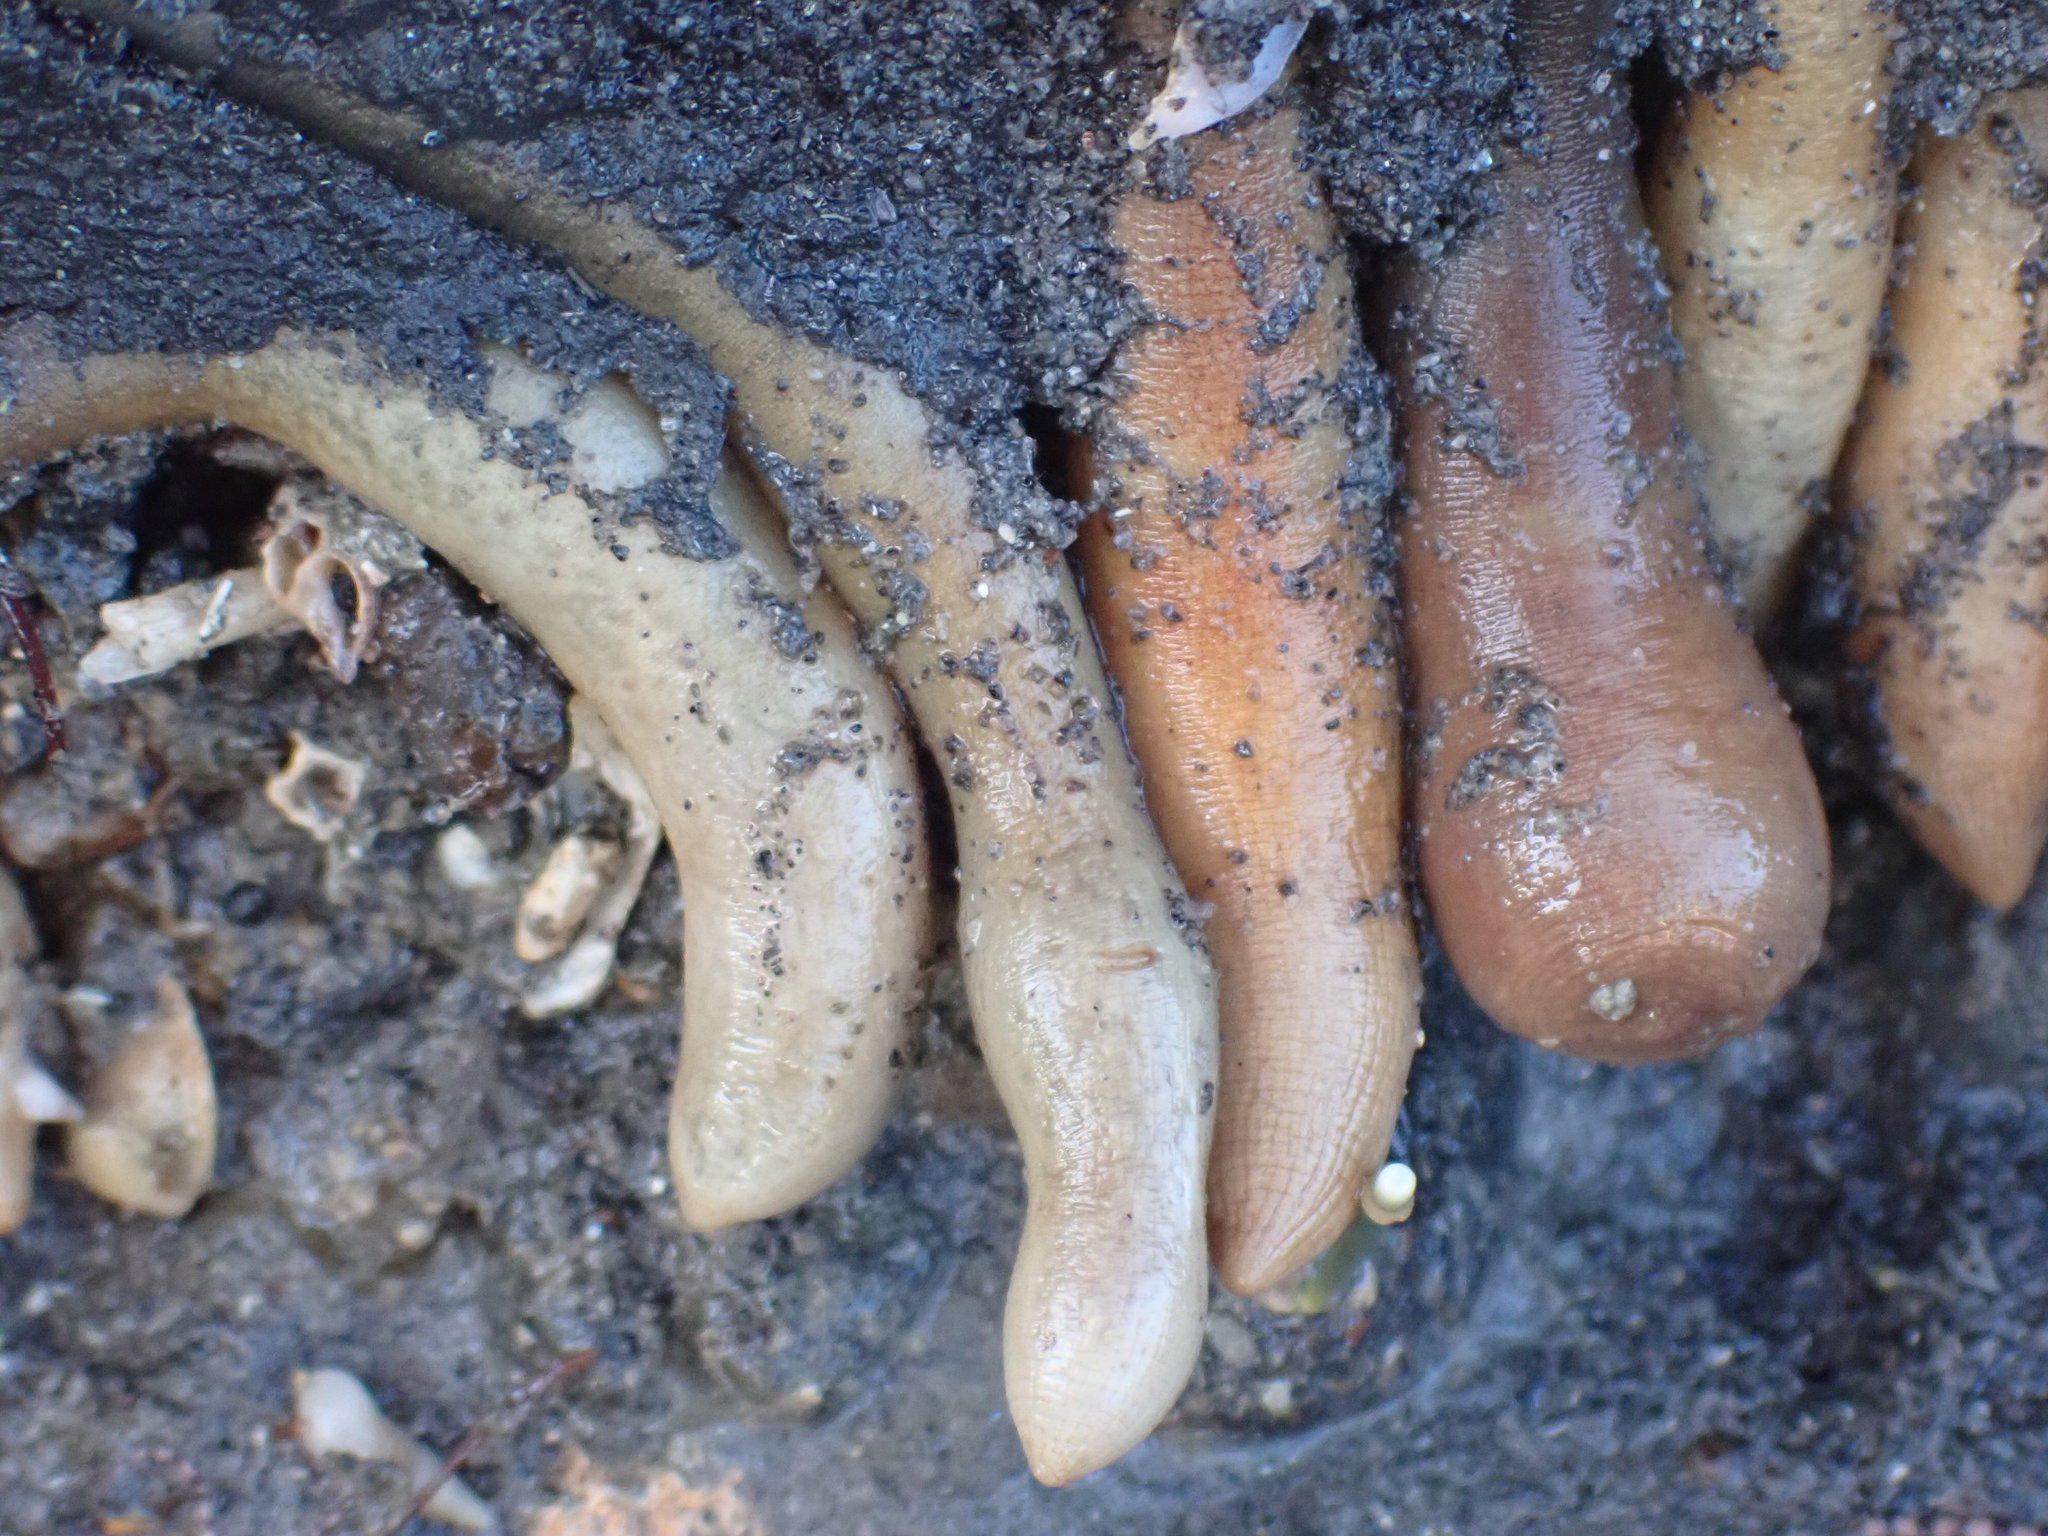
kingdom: Animalia
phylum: Sipuncula
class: Sipunculidea
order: Golfingiiformes
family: Themistidae
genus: Themiste
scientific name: Themiste minor
